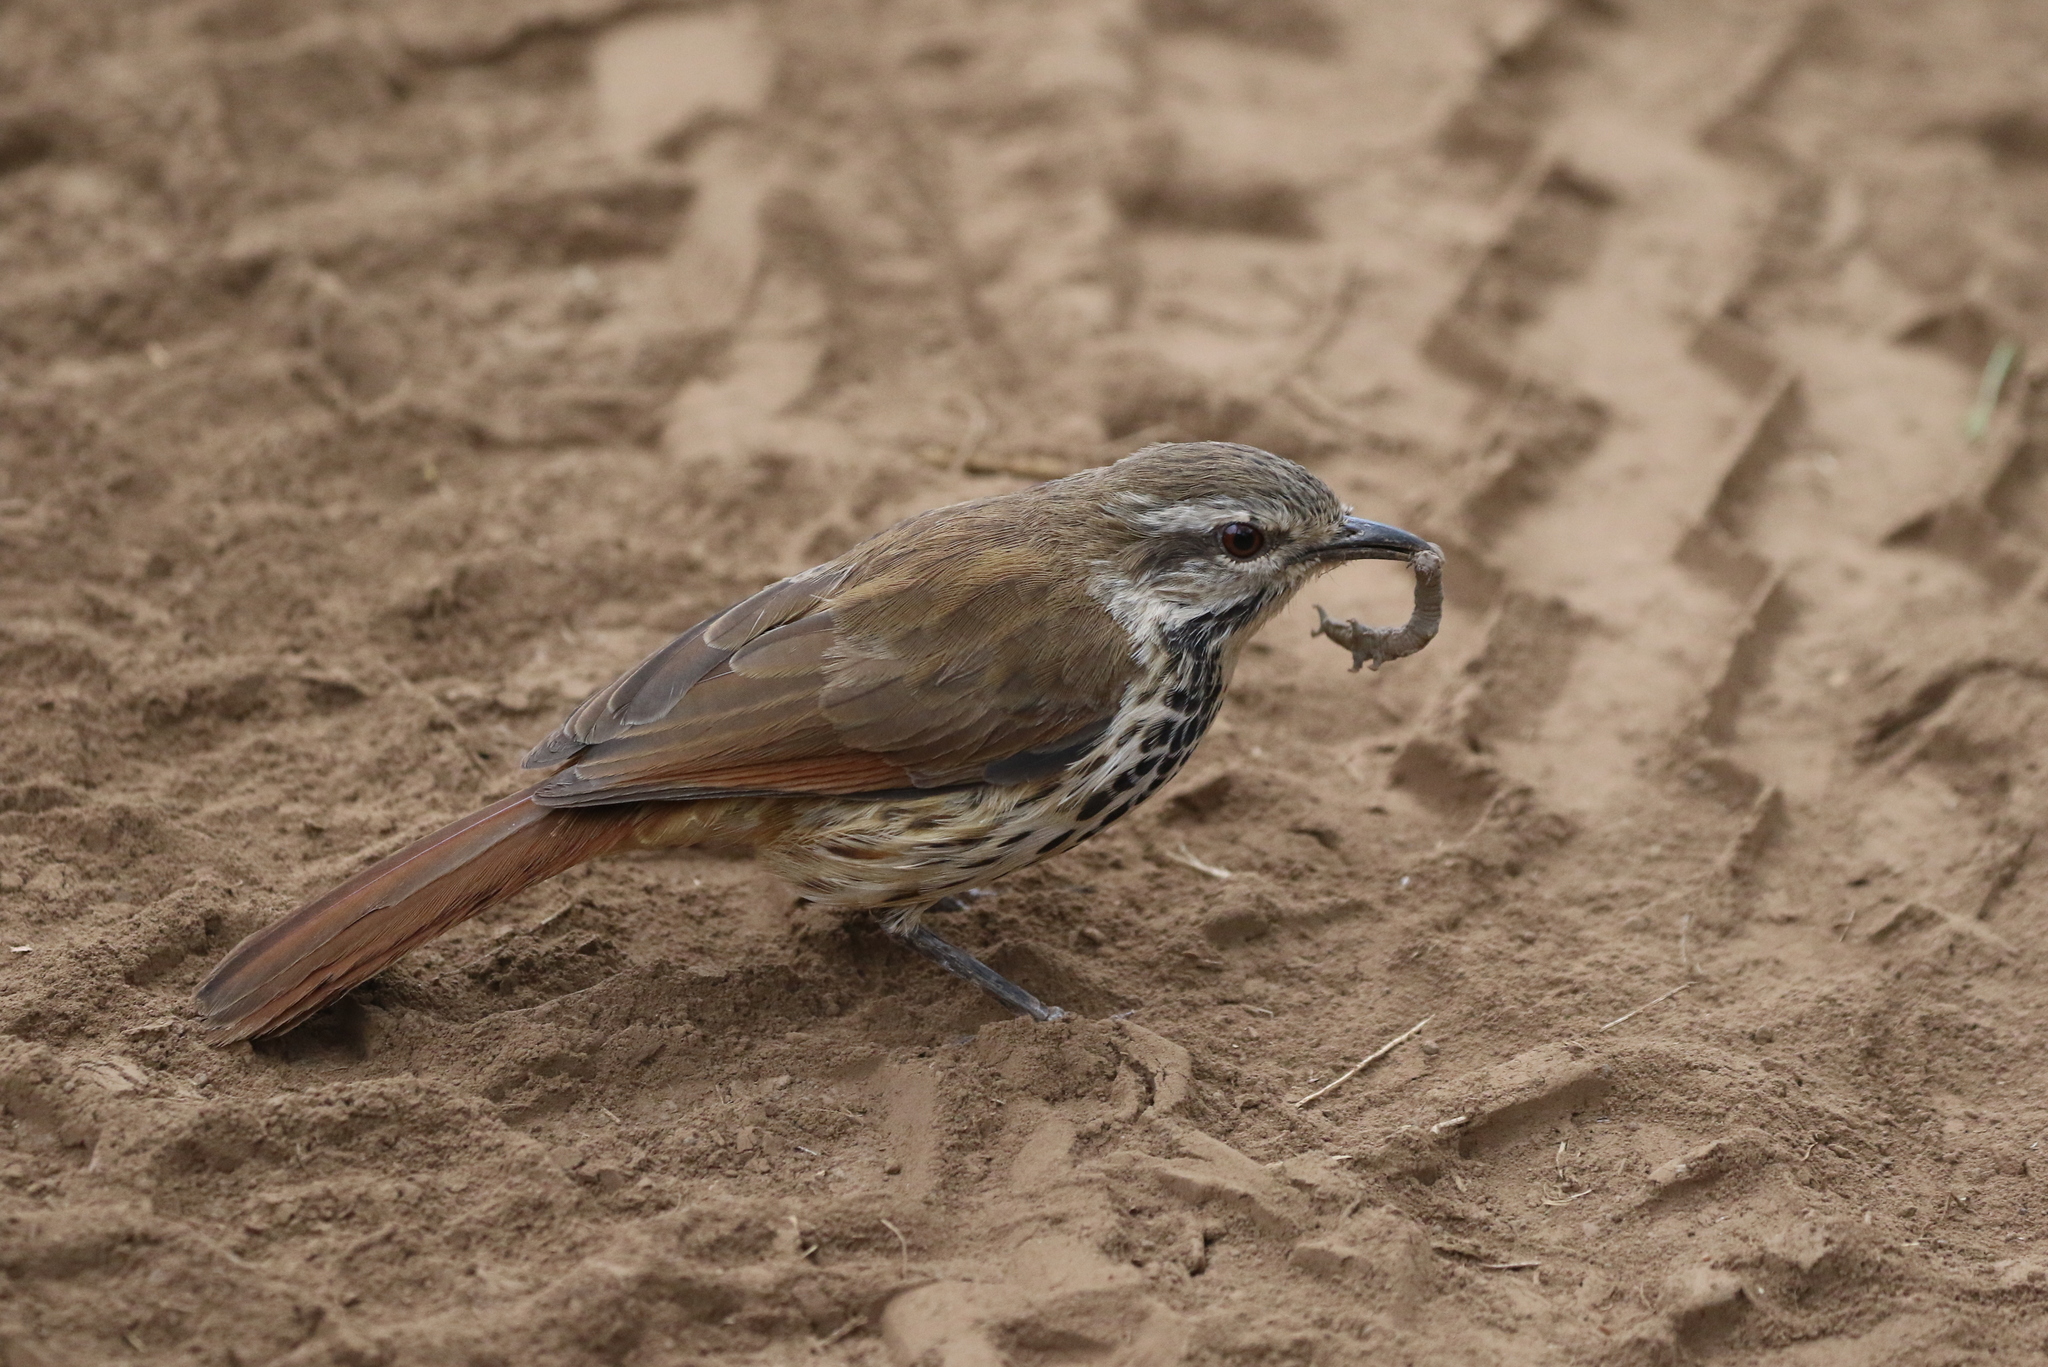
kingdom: Animalia
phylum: Chordata
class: Aves
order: Passeriformes
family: Muscicapidae
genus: Cichladusa
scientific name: Cichladusa guttata
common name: Spotted palm thrush
